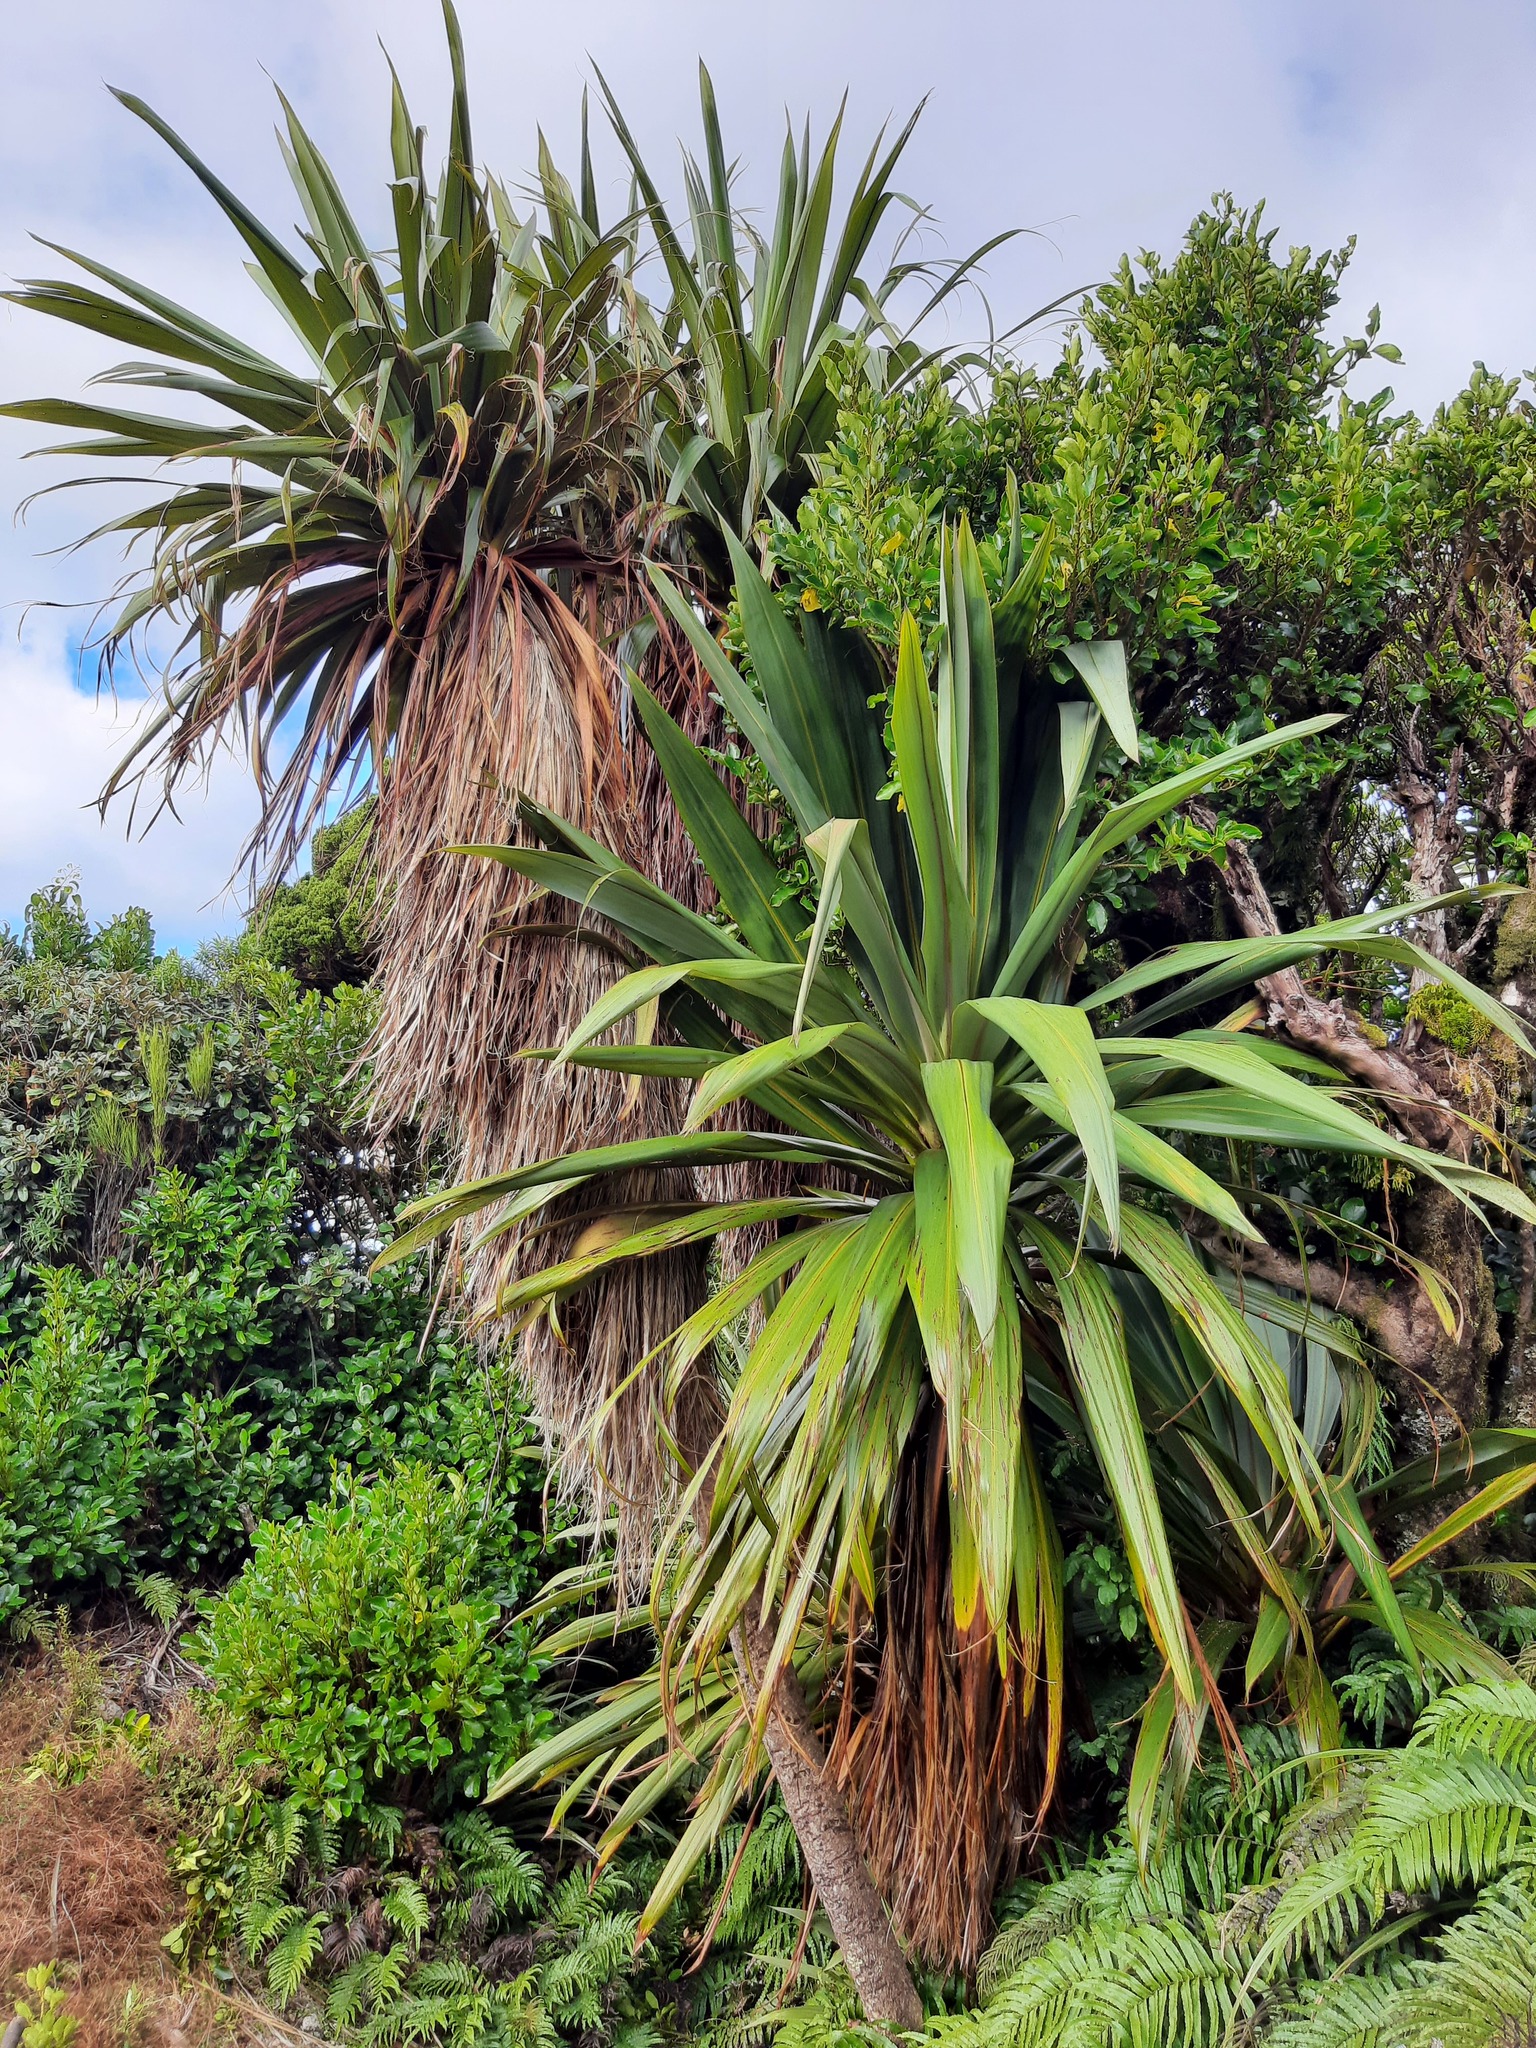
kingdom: Plantae
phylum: Tracheophyta
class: Liliopsida
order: Asparagales
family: Asparagaceae
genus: Cordyline
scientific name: Cordyline indivisa
